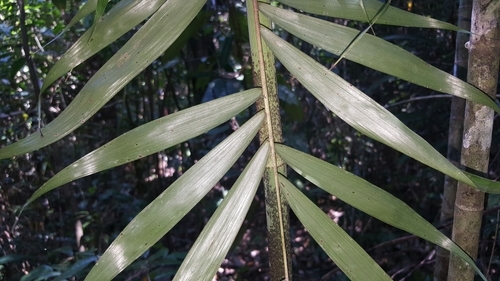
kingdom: Plantae
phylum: Tracheophyta
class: Liliopsida
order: Arecales
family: Arecaceae
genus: Dypsis
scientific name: Dypsis sahanofensis
